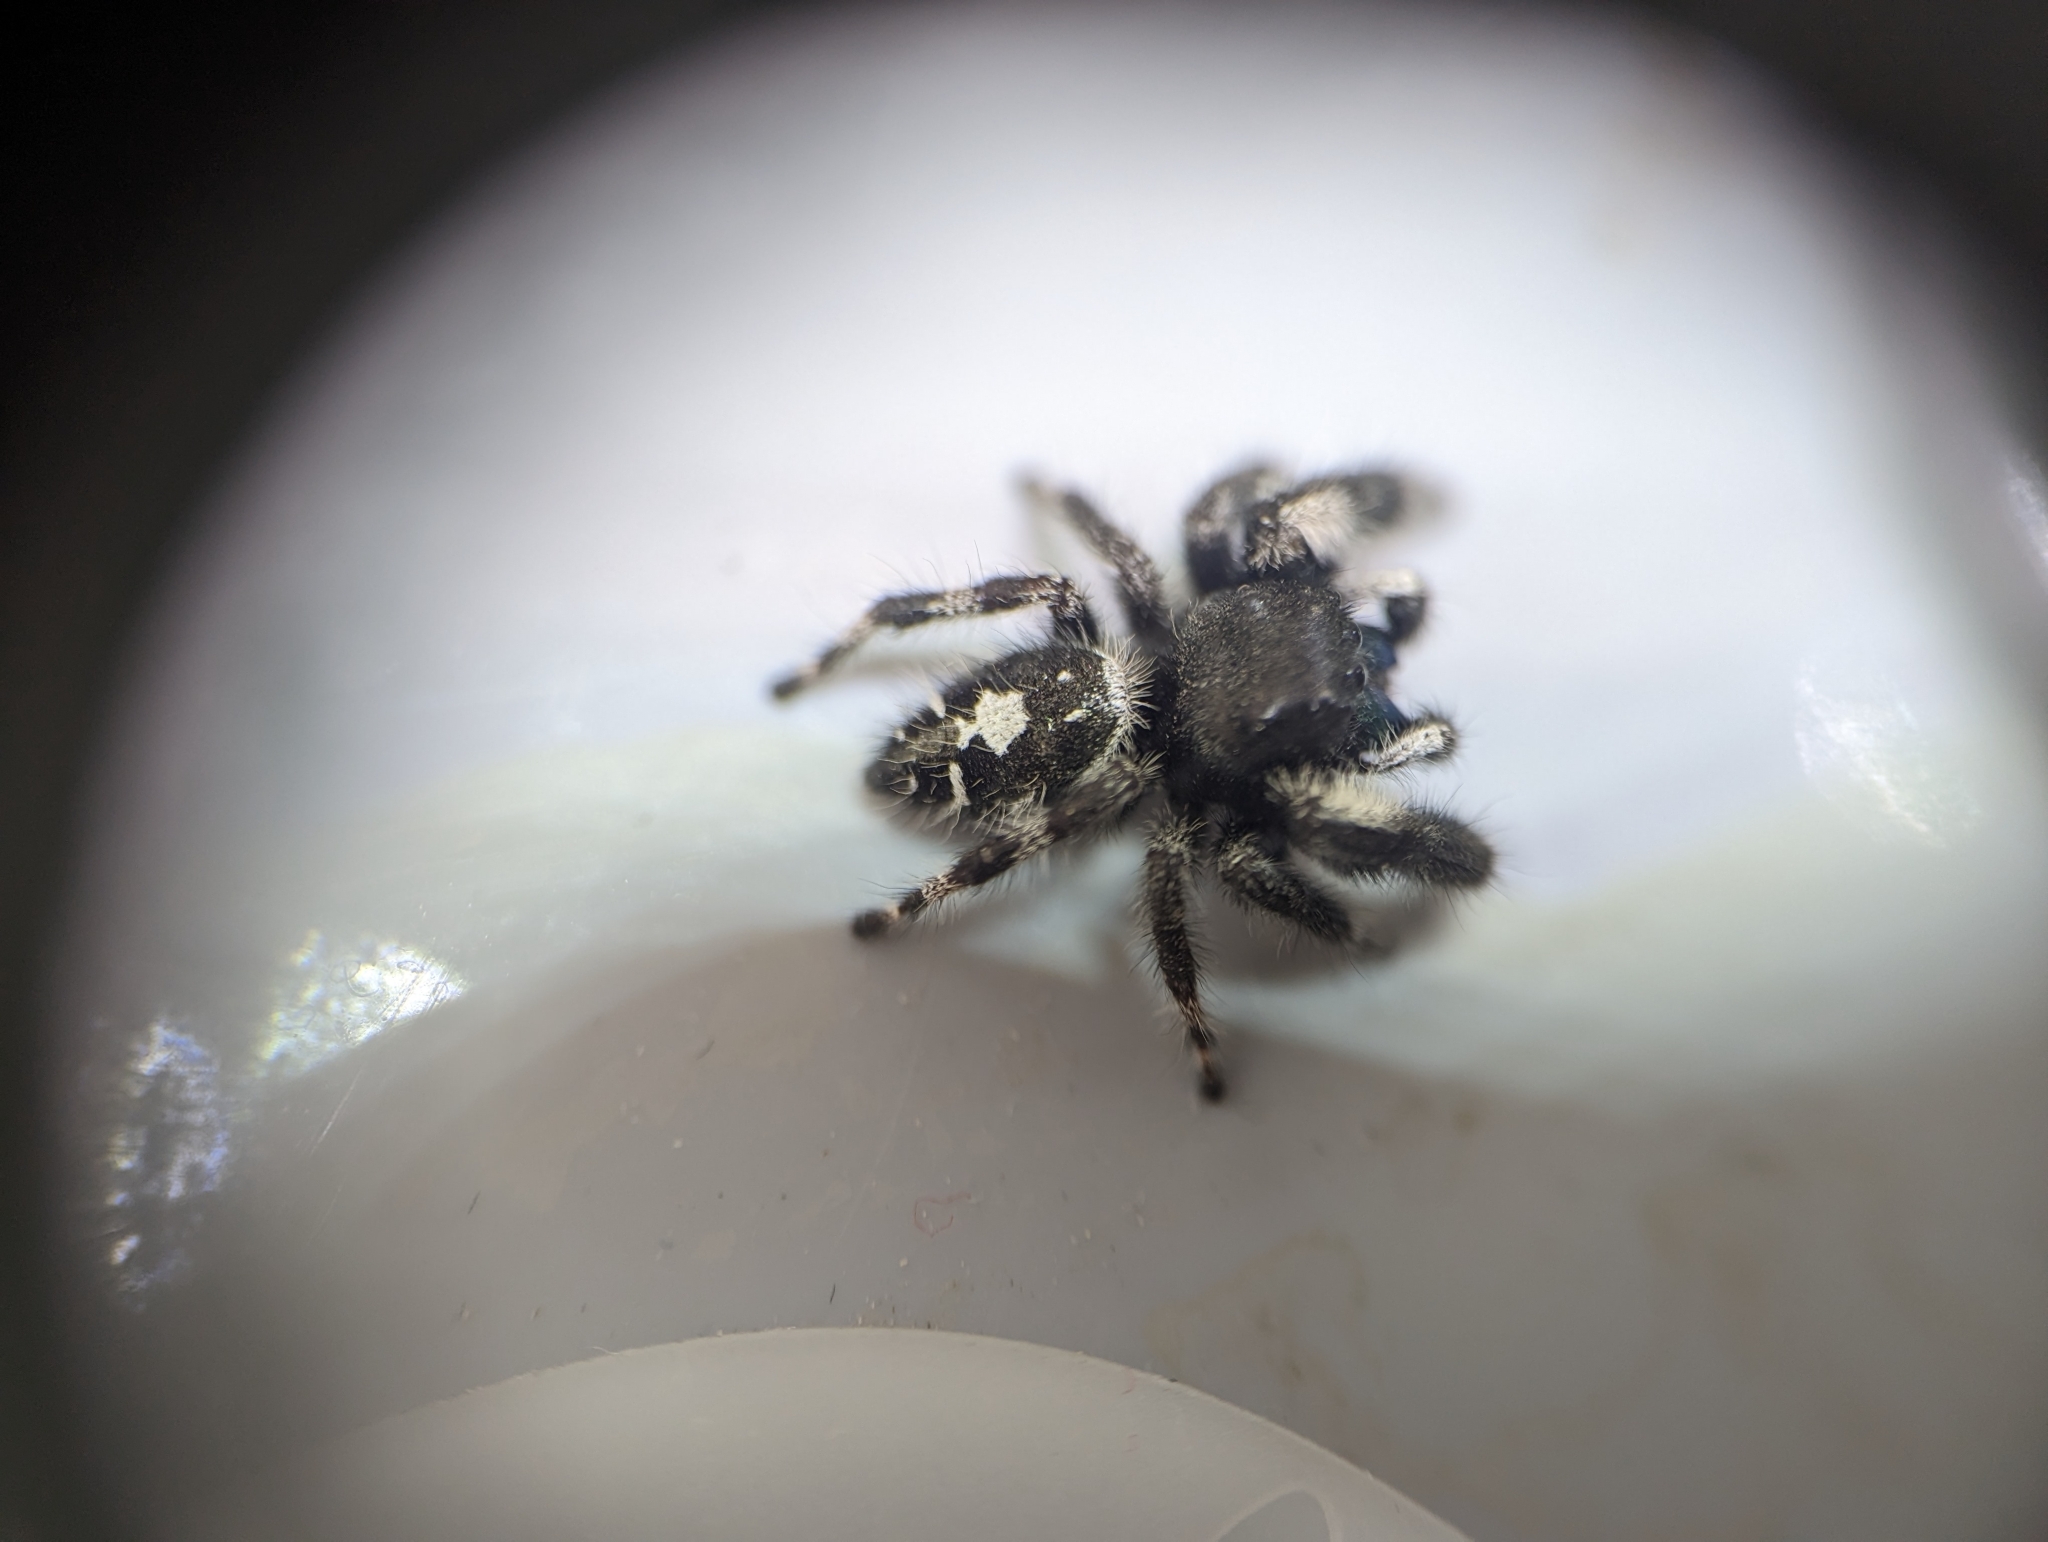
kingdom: Animalia
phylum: Arthropoda
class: Arachnida
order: Araneae
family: Salticidae
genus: Phidippus
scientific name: Phidippus audax
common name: Bold jumper
